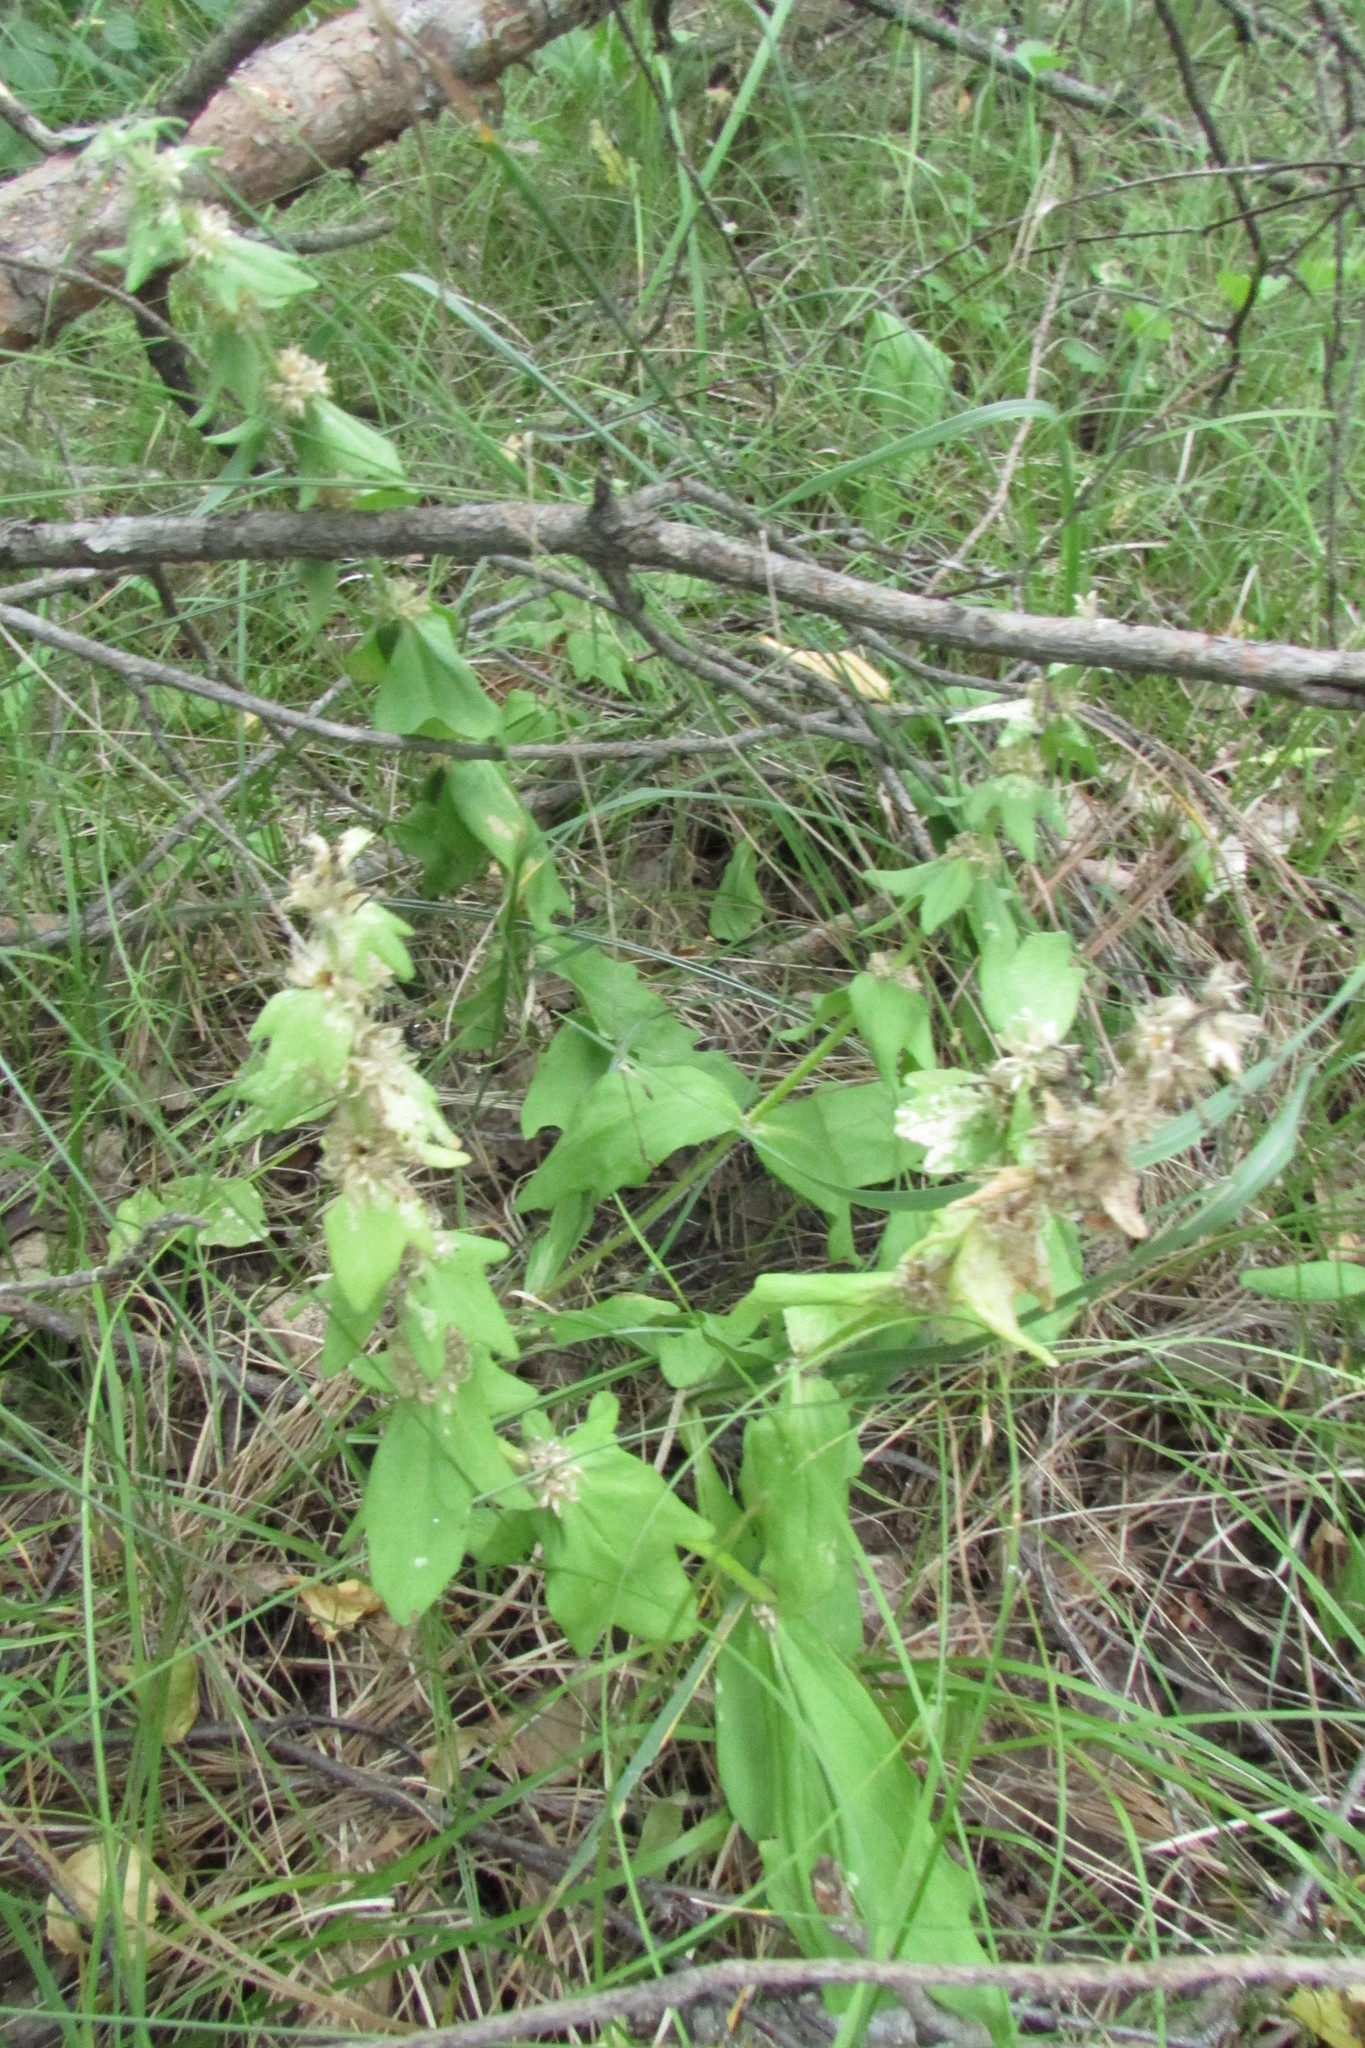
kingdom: Plantae
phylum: Tracheophyta
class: Magnoliopsida
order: Lamiales
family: Lamiaceae
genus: Ajuga
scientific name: Ajuga genevensis
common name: Blue bugle
